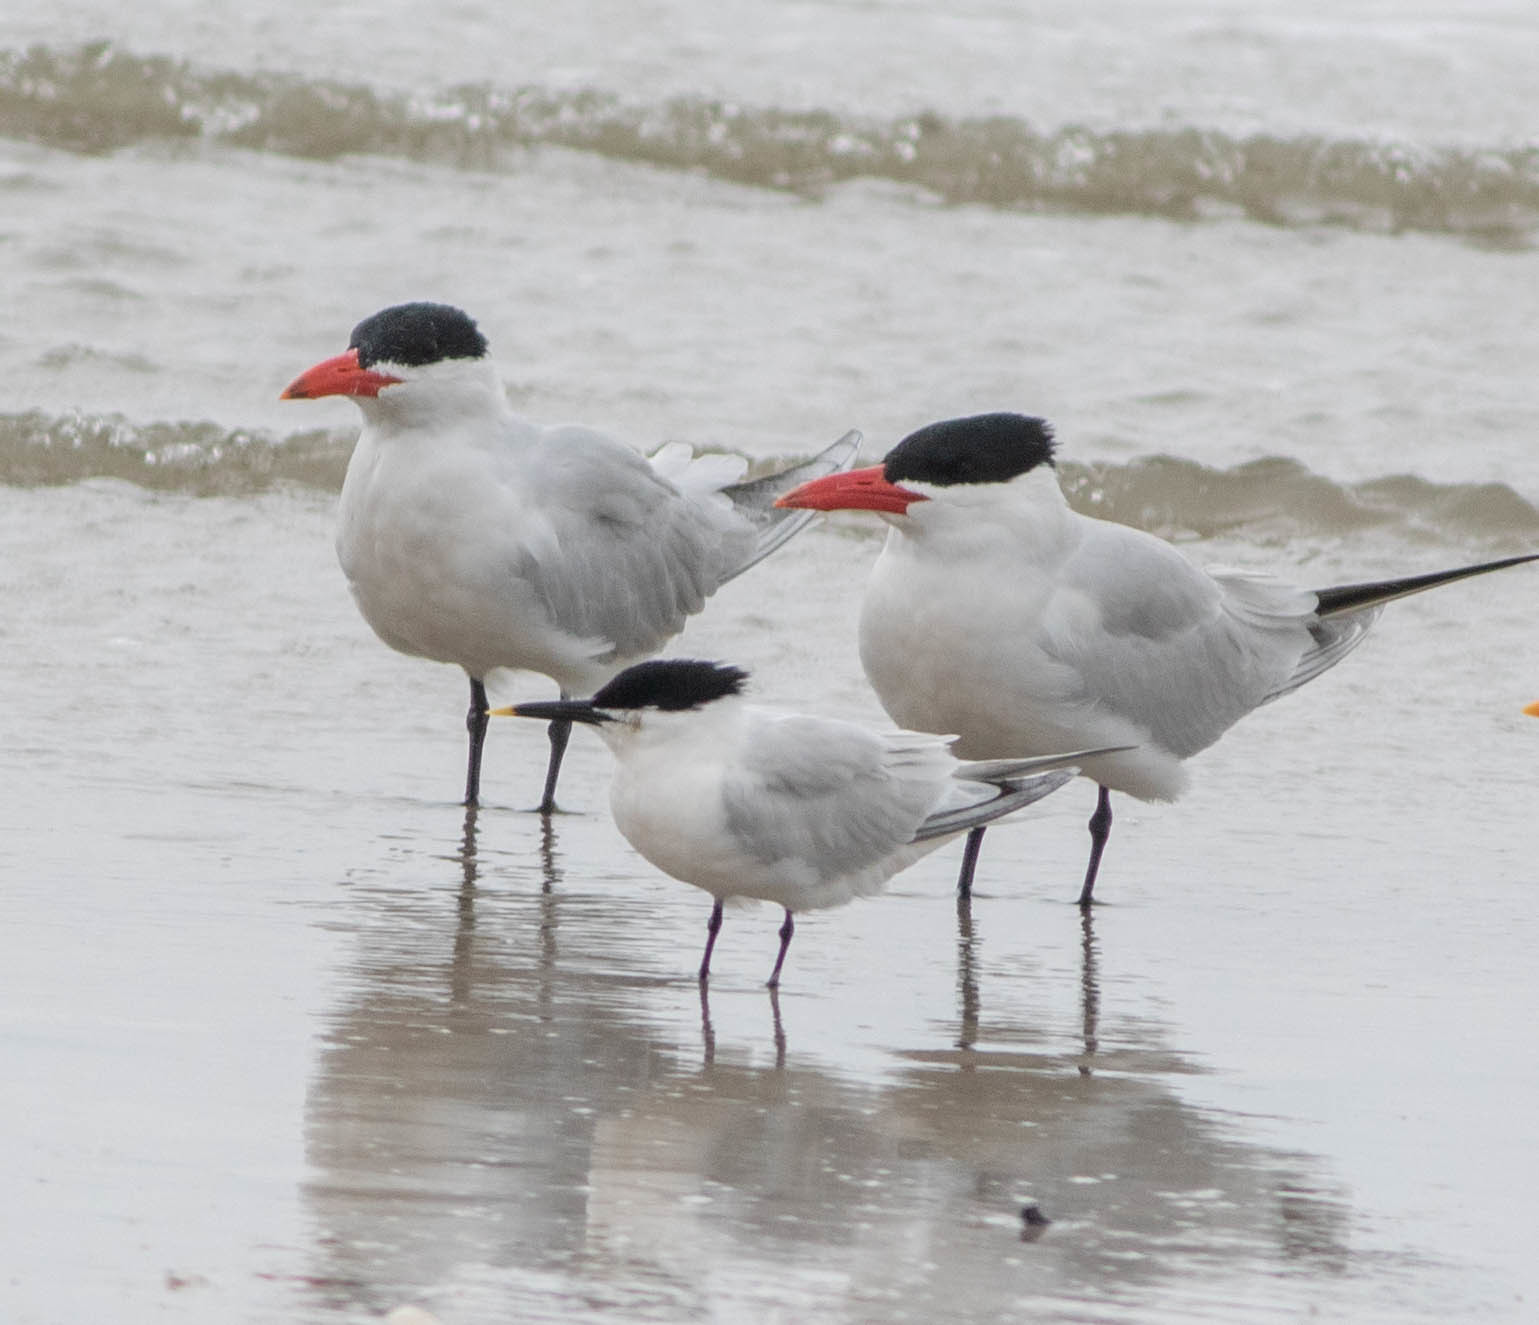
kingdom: Animalia
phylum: Chordata
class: Aves
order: Charadriiformes
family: Laridae
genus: Thalasseus
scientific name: Thalasseus sandvicensis
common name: Sandwich tern
